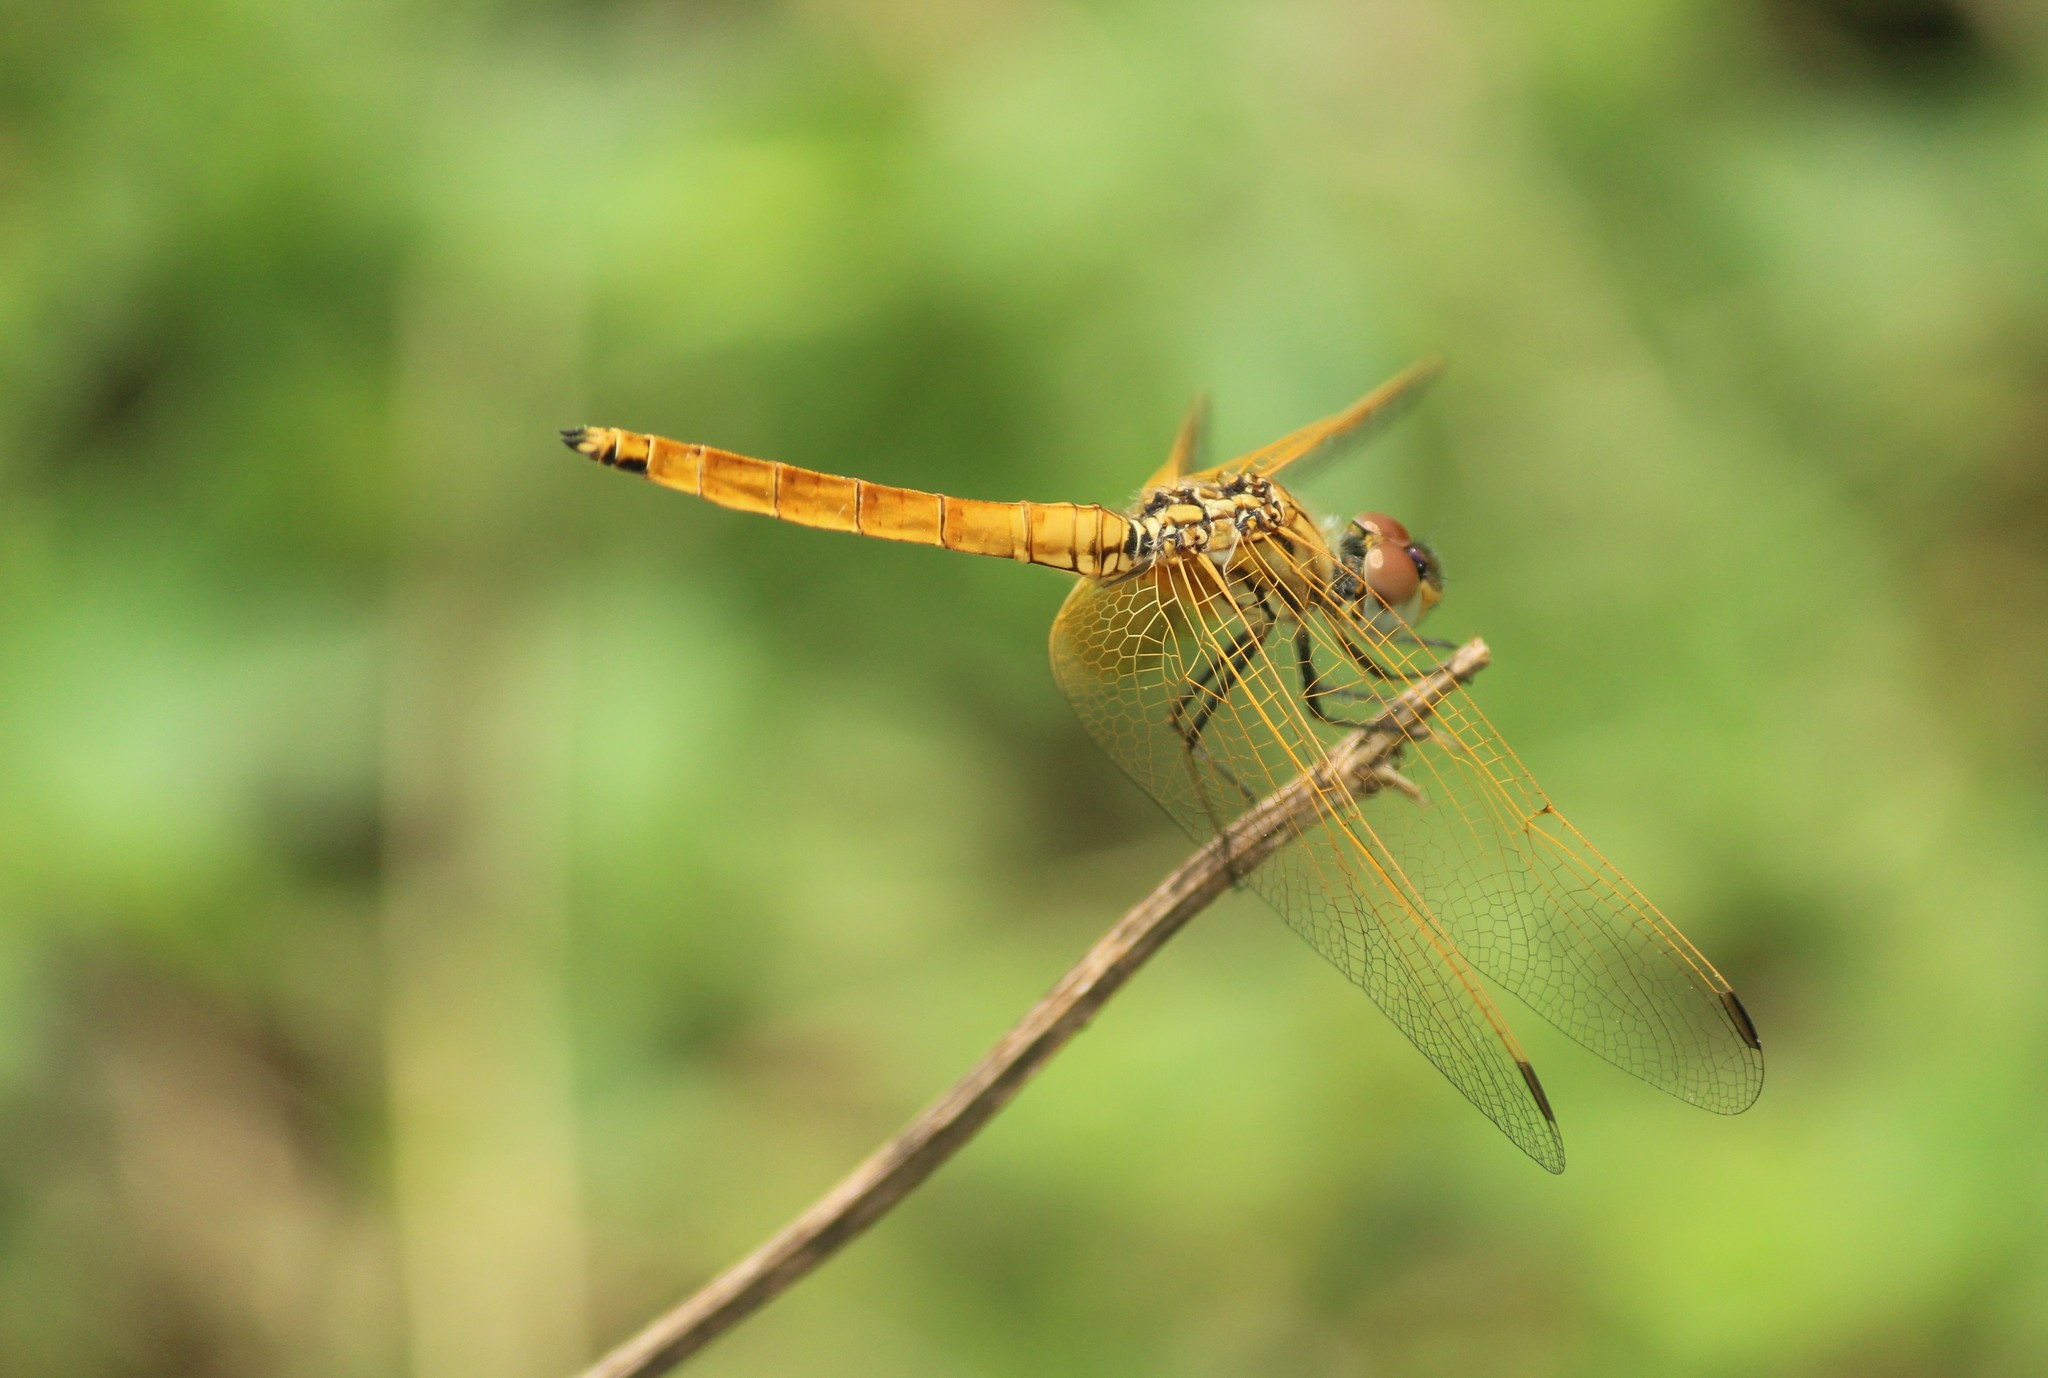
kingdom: Animalia
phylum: Arthropoda
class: Insecta
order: Odonata
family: Libellulidae
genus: Trithemis
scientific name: Trithemis aurora
